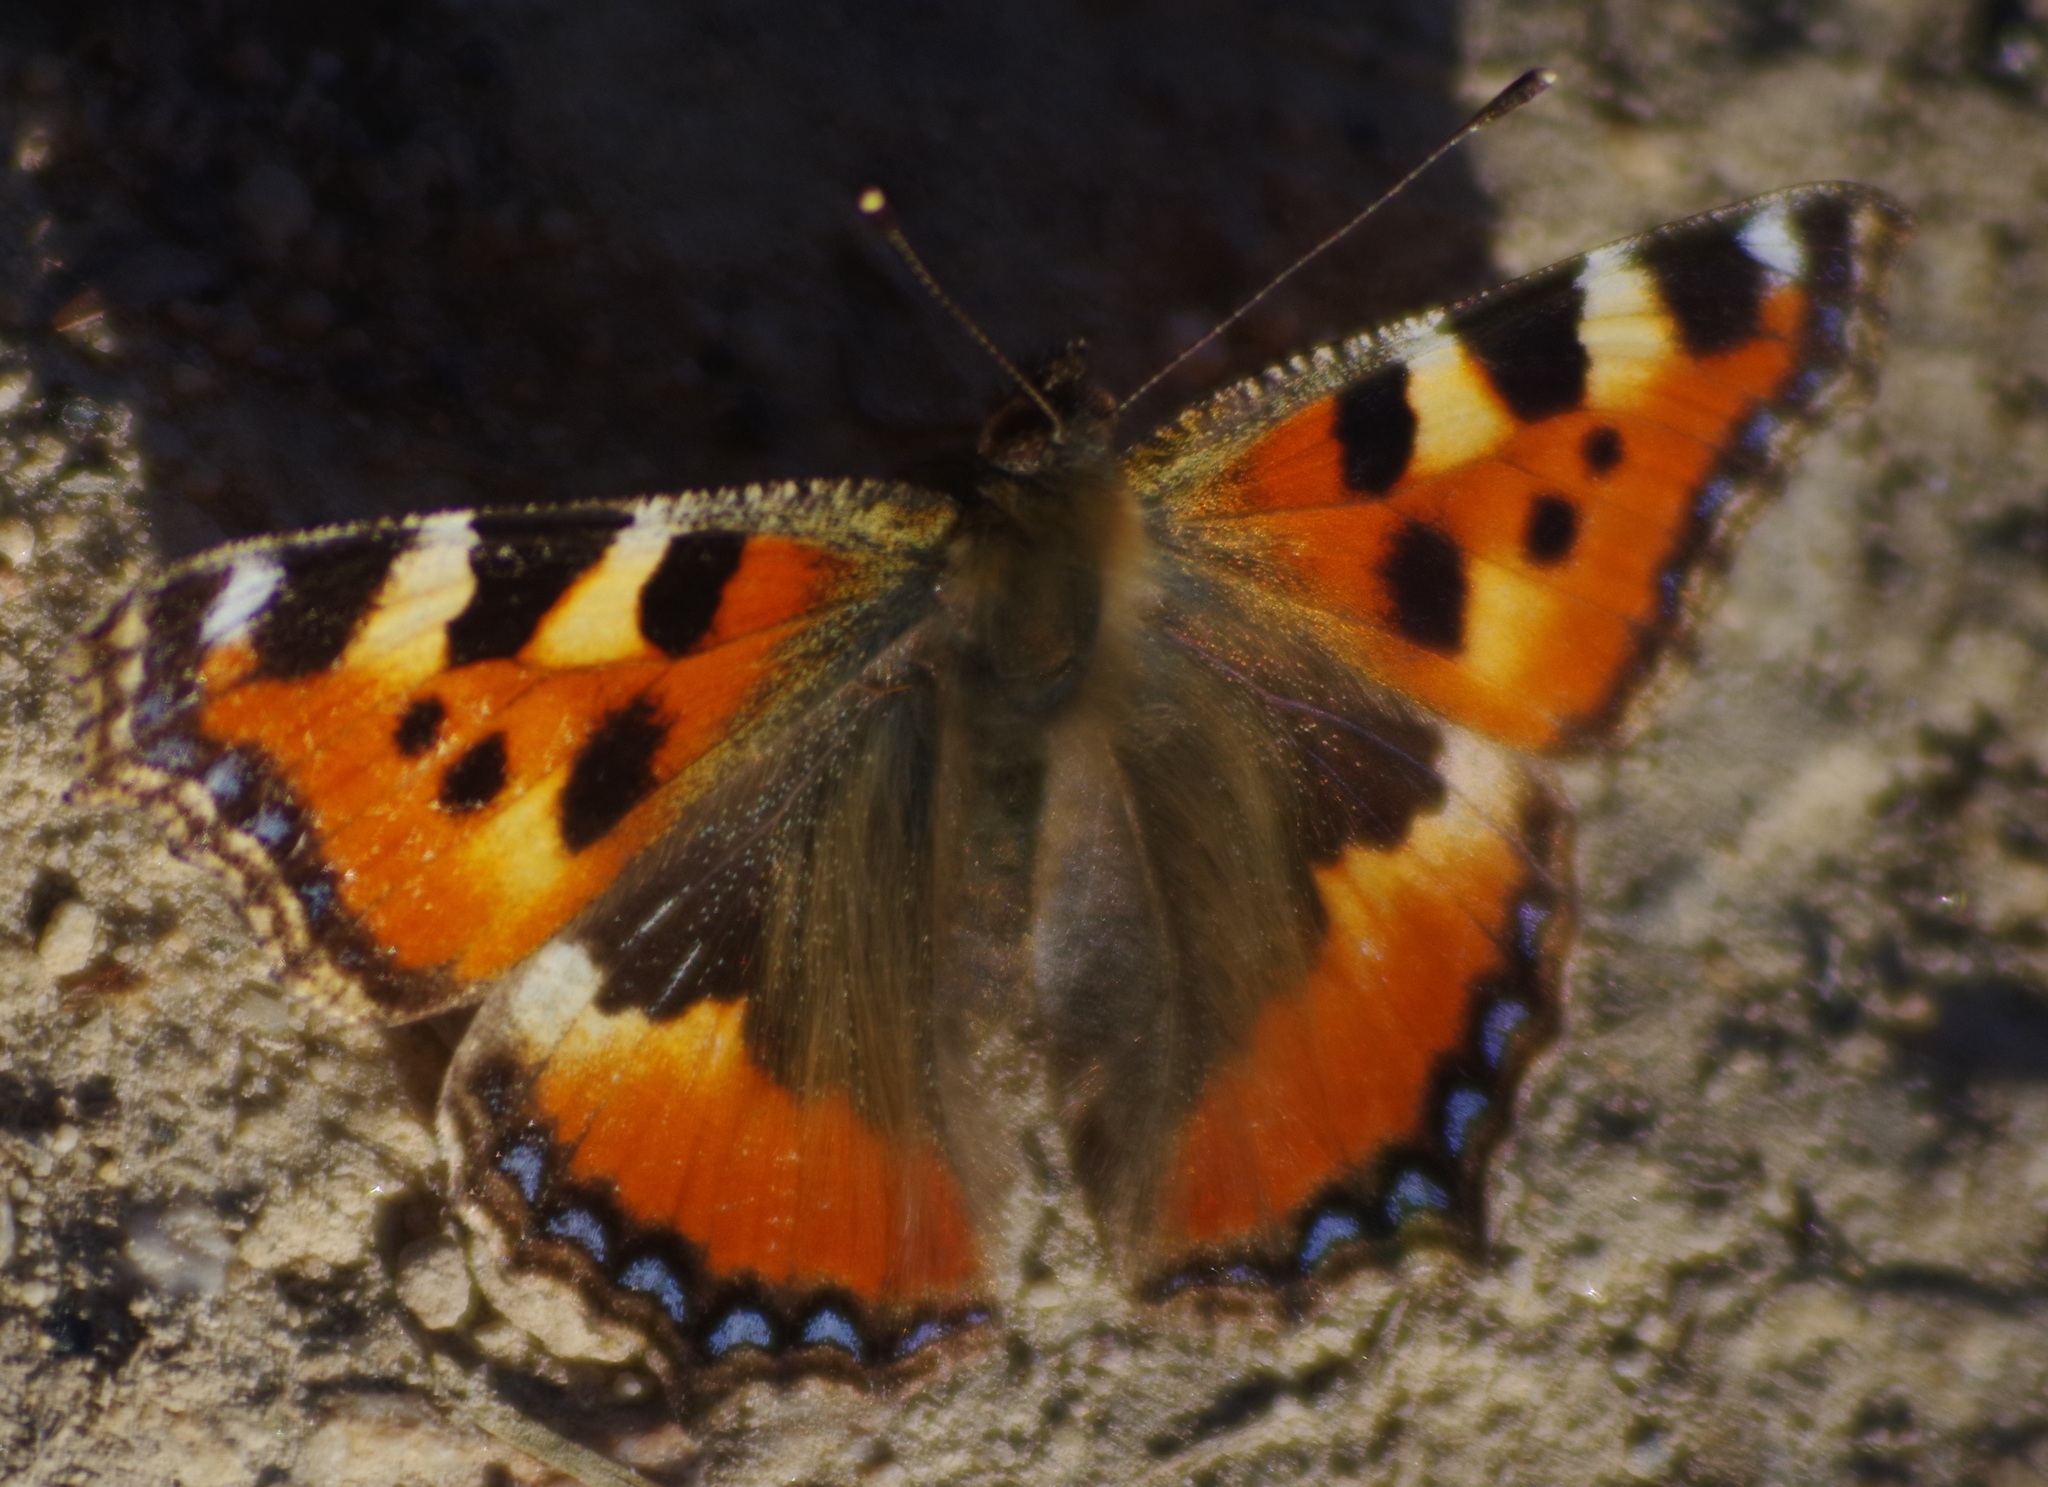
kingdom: Animalia
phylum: Arthropoda
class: Insecta
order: Lepidoptera
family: Nymphalidae
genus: Aglais
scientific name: Aglais urticae
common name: Small tortoiseshell
